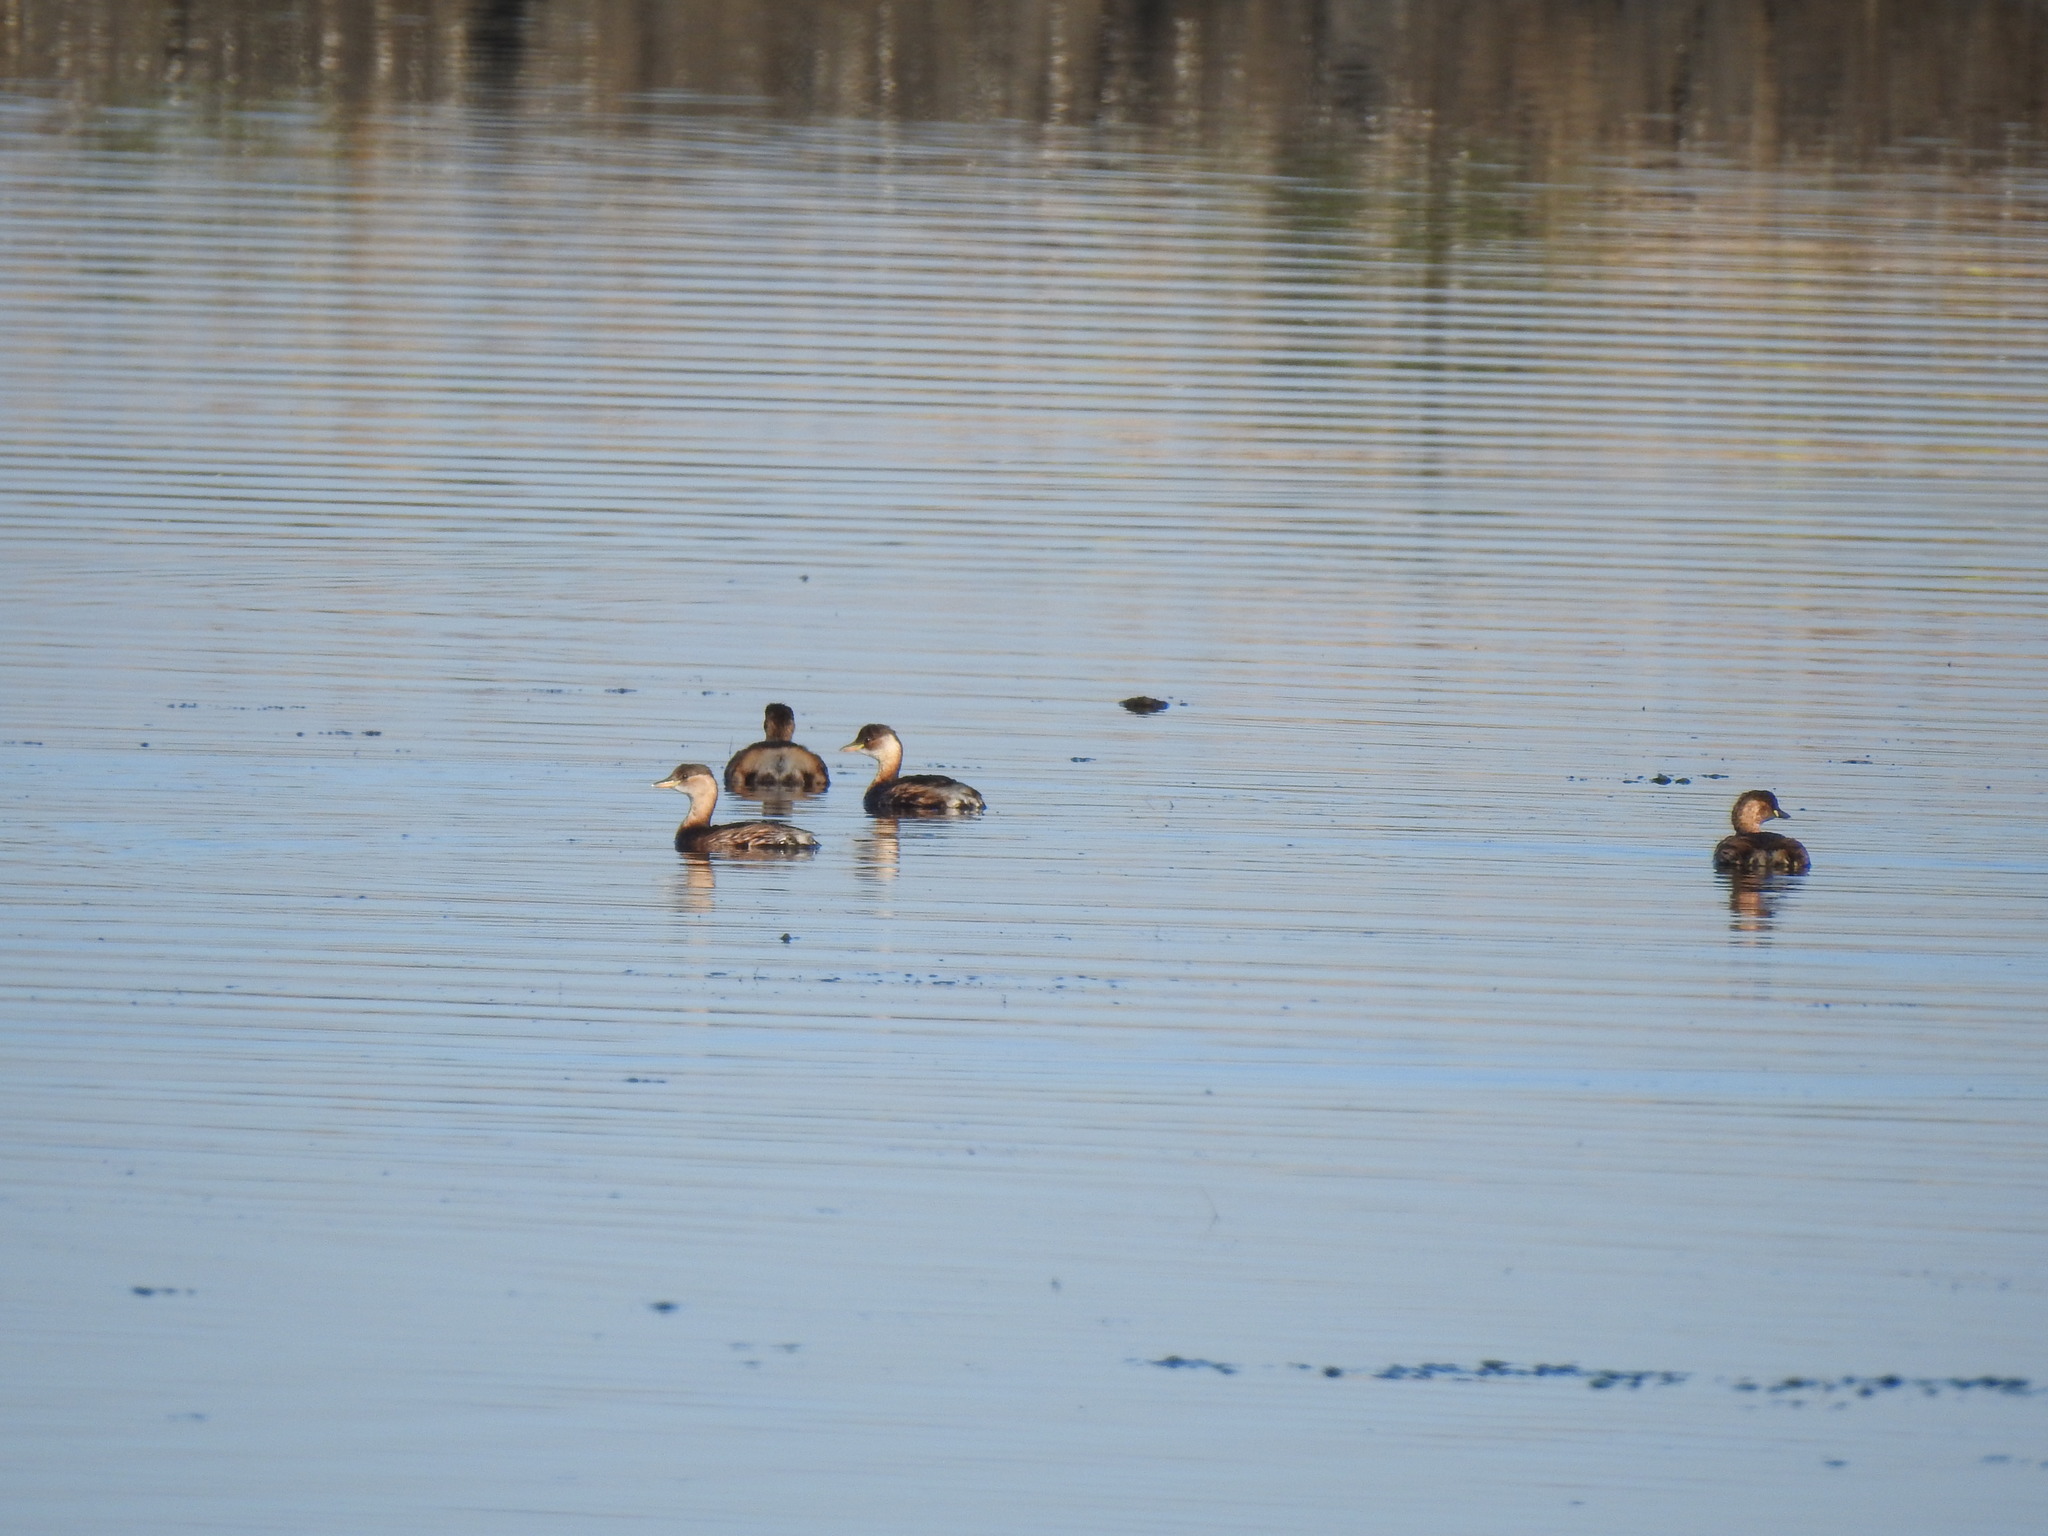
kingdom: Animalia
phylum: Chordata
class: Aves
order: Podicipediformes
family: Podicipedidae
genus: Tachybaptus
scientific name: Tachybaptus ruficollis
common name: Little grebe
